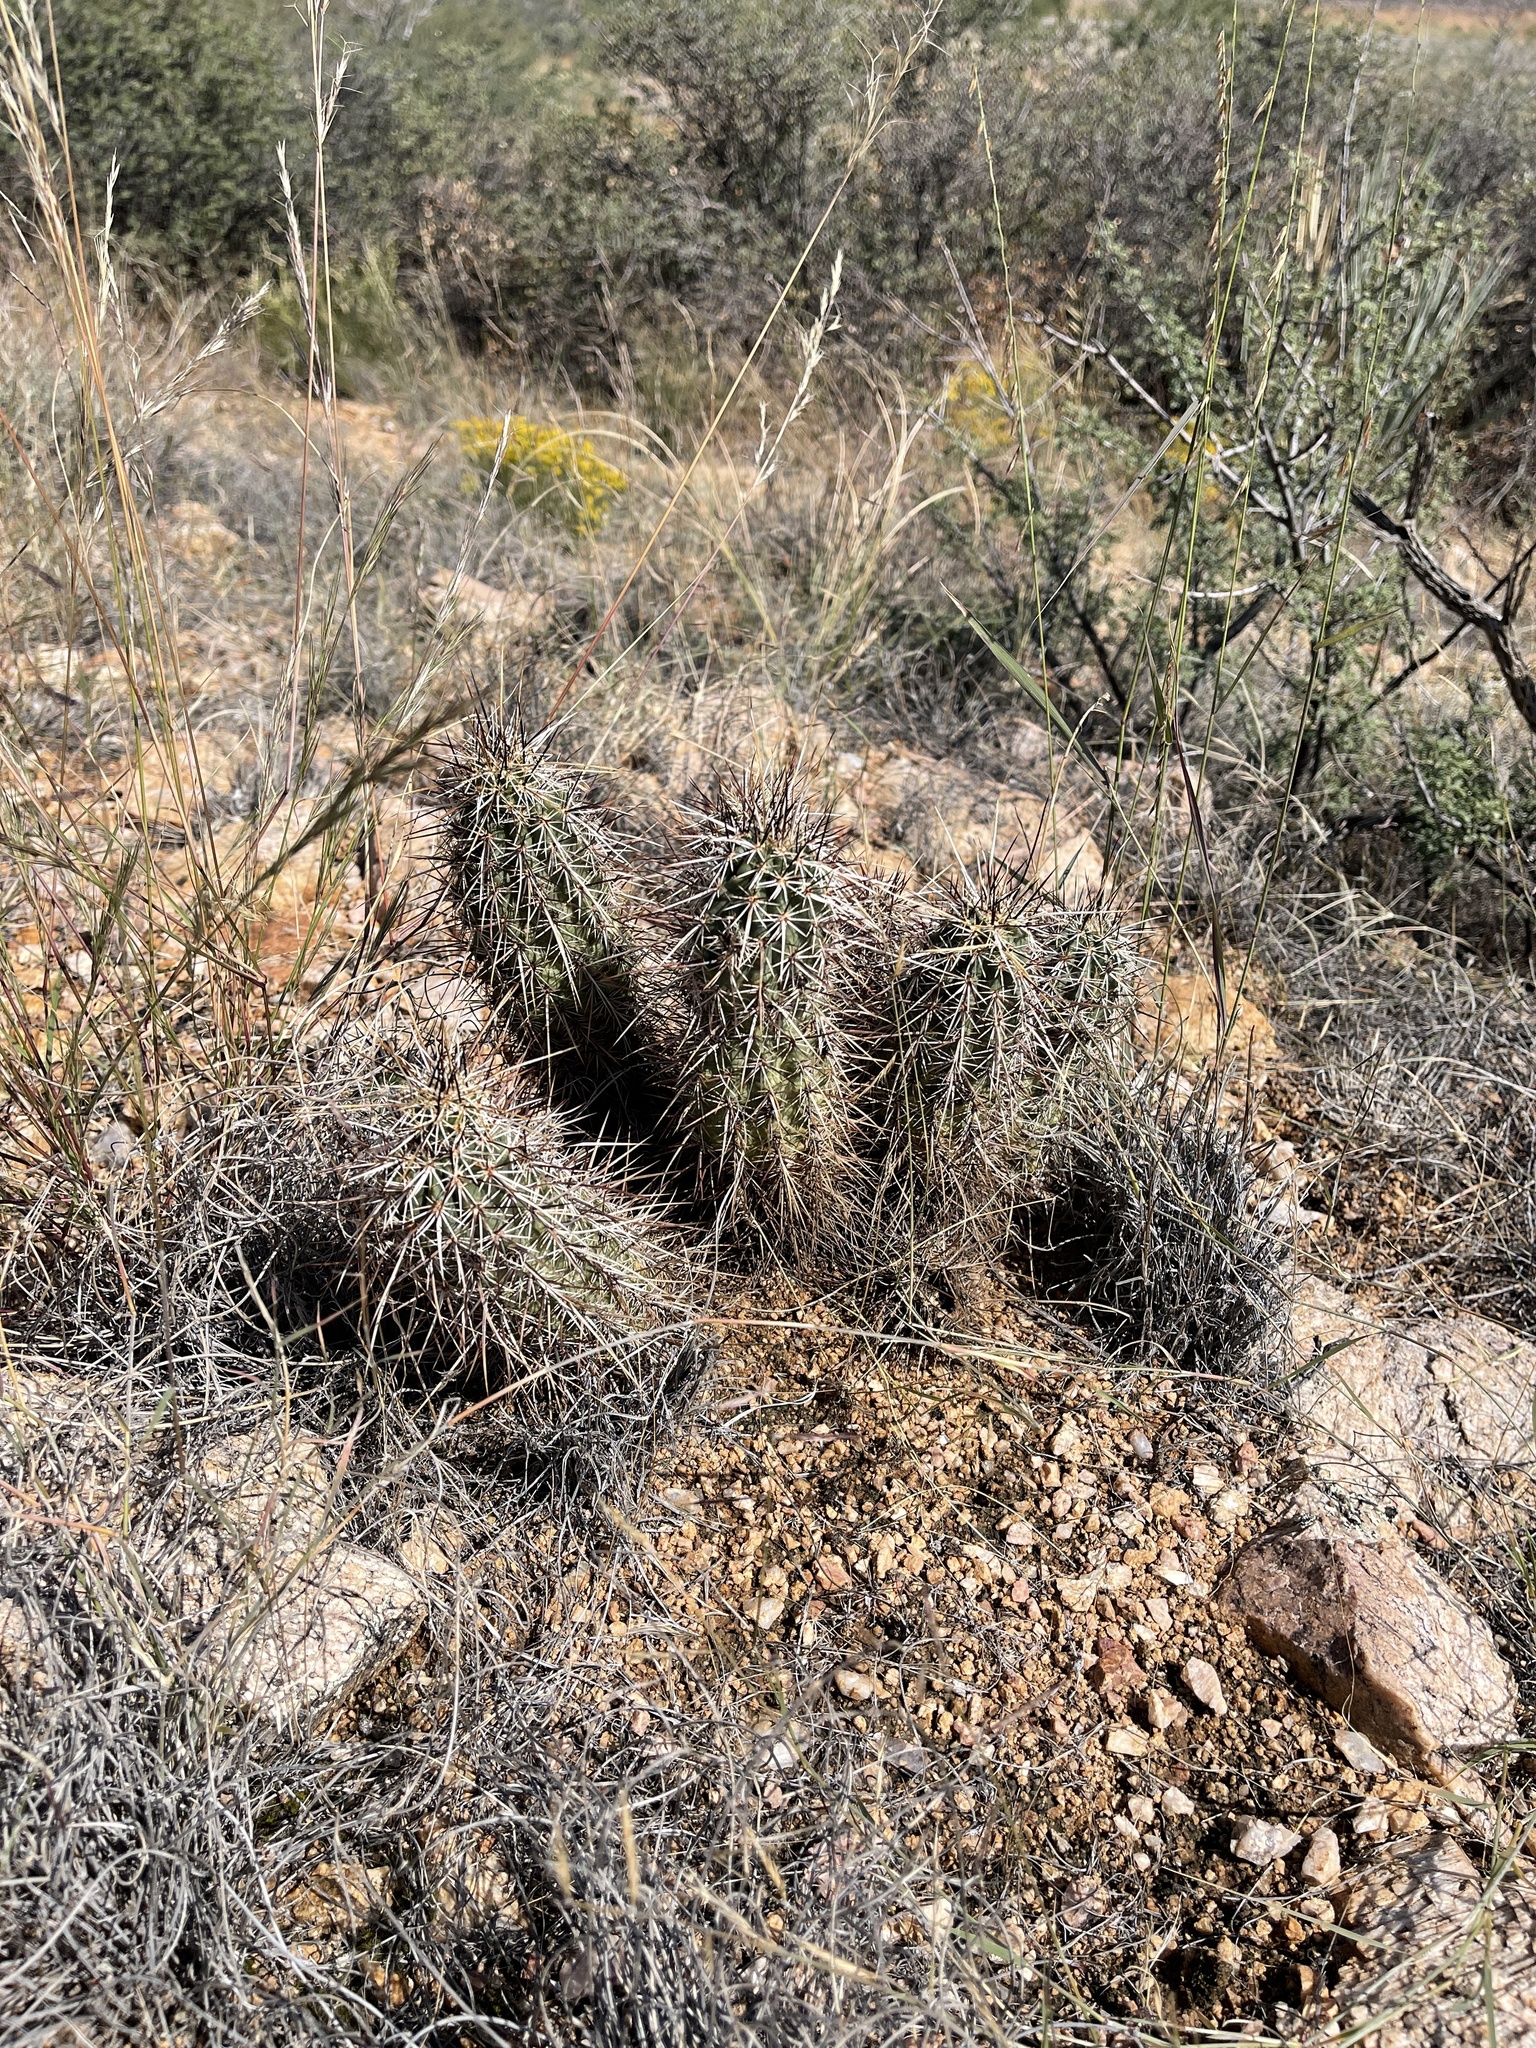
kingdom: Plantae
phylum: Tracheophyta
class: Magnoliopsida
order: Caryophyllales
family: Cactaceae
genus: Echinocereus
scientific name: Echinocereus engelmannii
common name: Engelmann's hedgehog cactus
